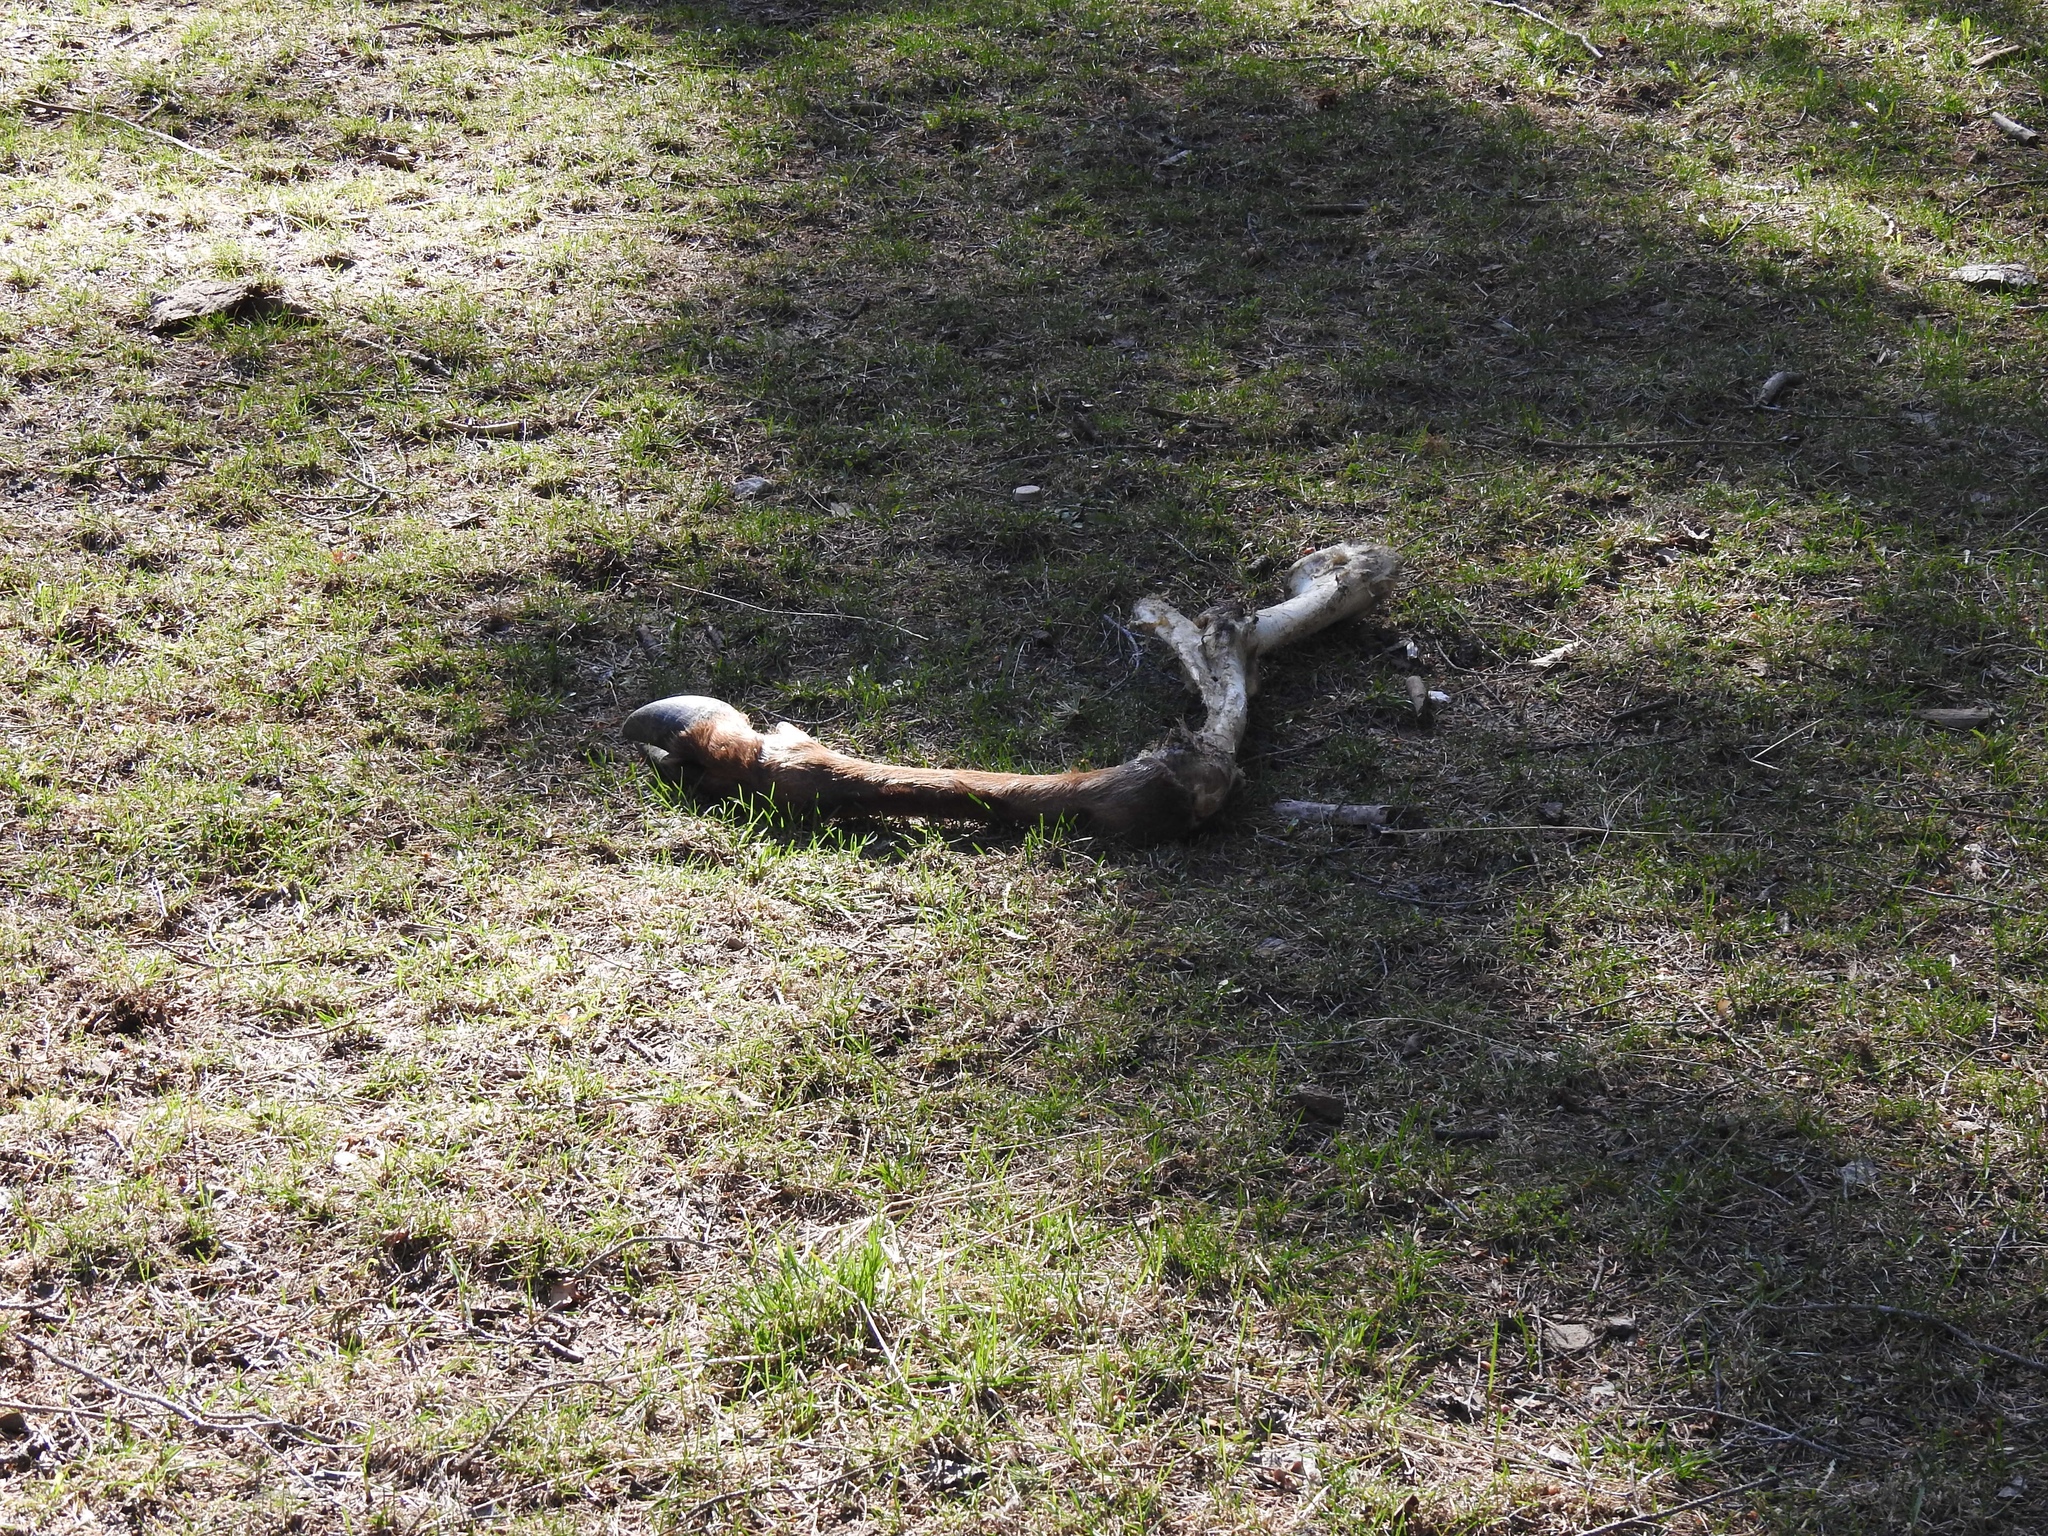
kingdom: Animalia
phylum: Chordata
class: Mammalia
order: Artiodactyla
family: Cervidae
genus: Cervus
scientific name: Cervus elaphus
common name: Red deer
